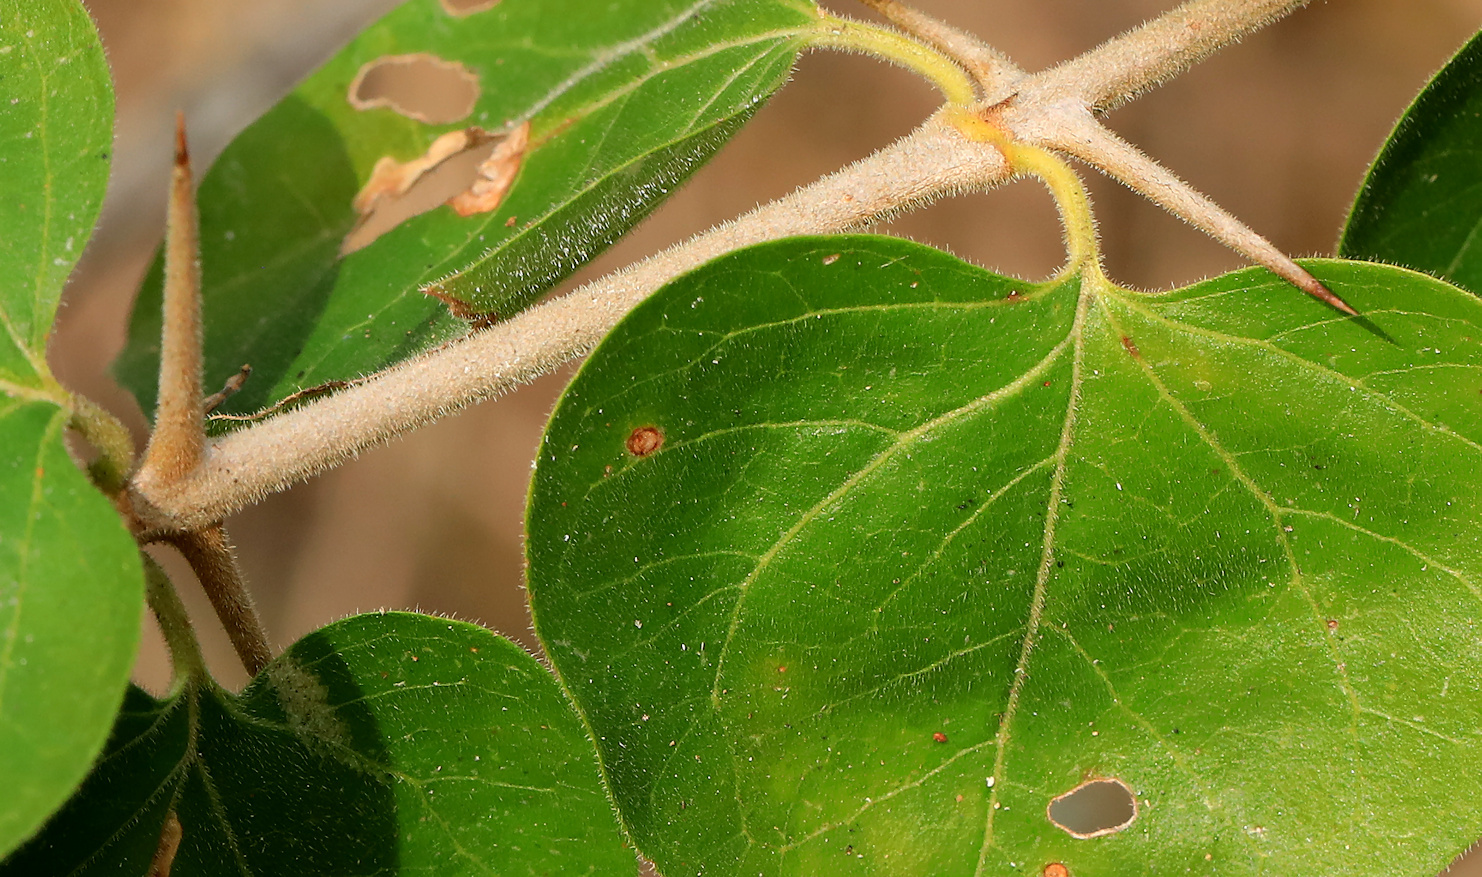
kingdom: Plantae
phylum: Tracheophyta
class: Magnoliopsida
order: Gentianales
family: Rubiaceae
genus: Plectroniella
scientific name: Plectroniella armata
